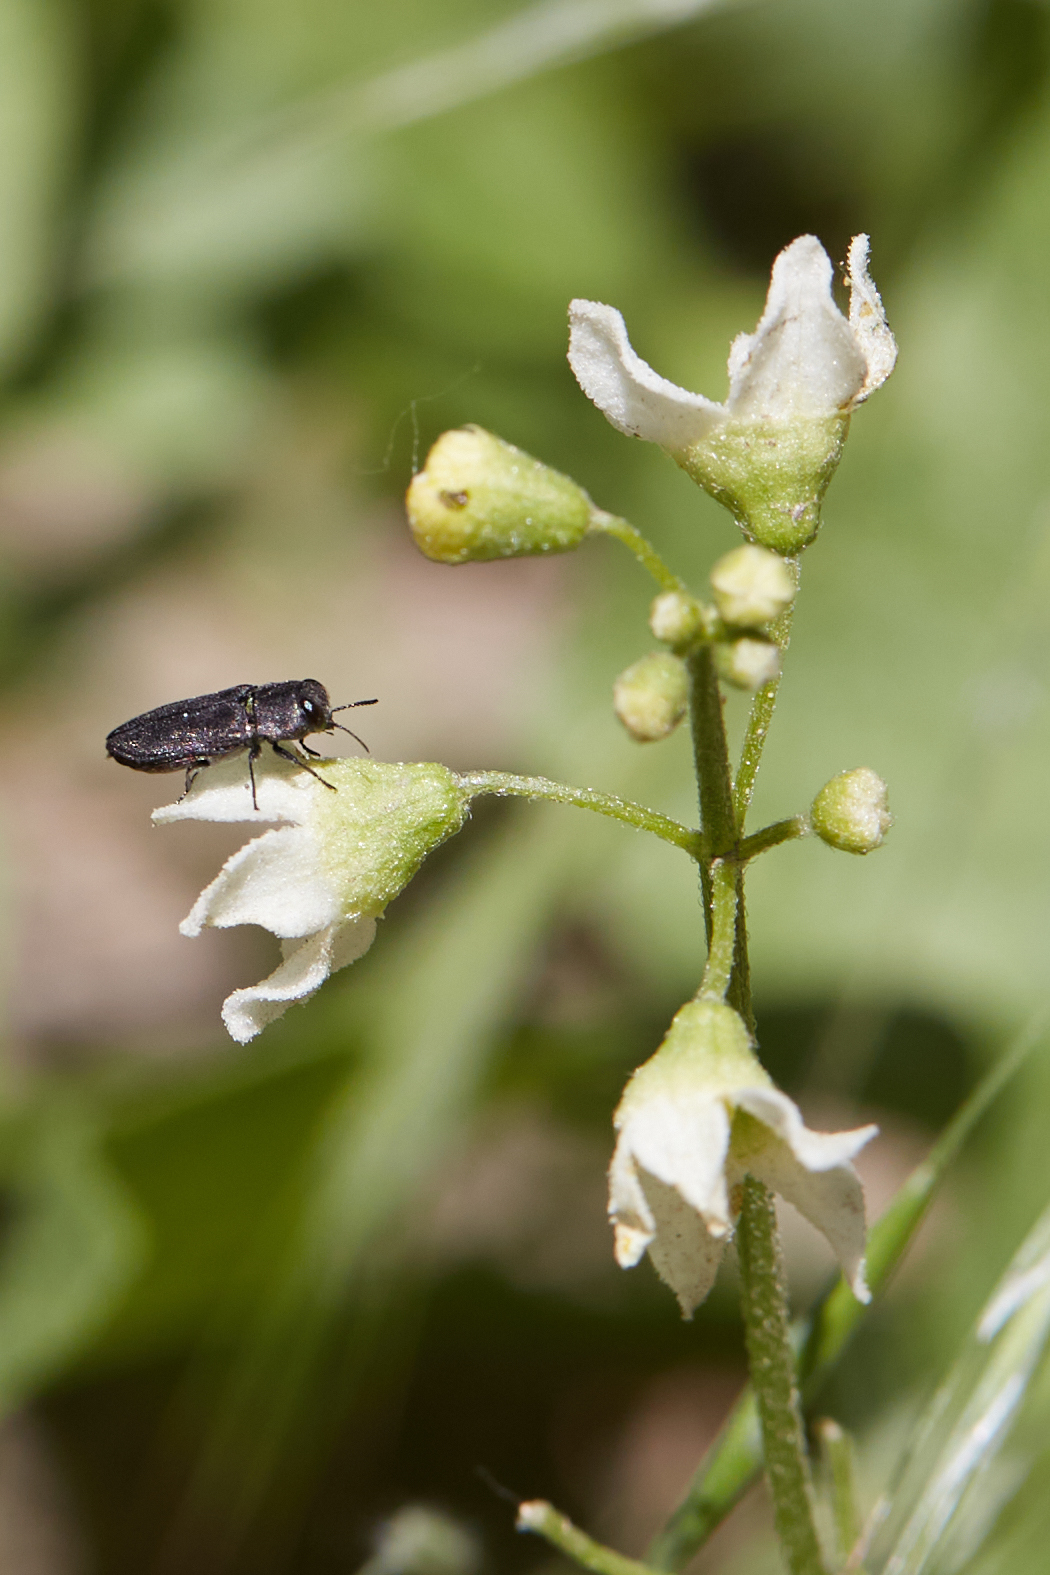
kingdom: Plantae
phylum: Tracheophyta
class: Magnoliopsida
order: Cucurbitales
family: Cucurbitaceae
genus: Marah
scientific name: Marah macrocarpa
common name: Cucamonga manroot
